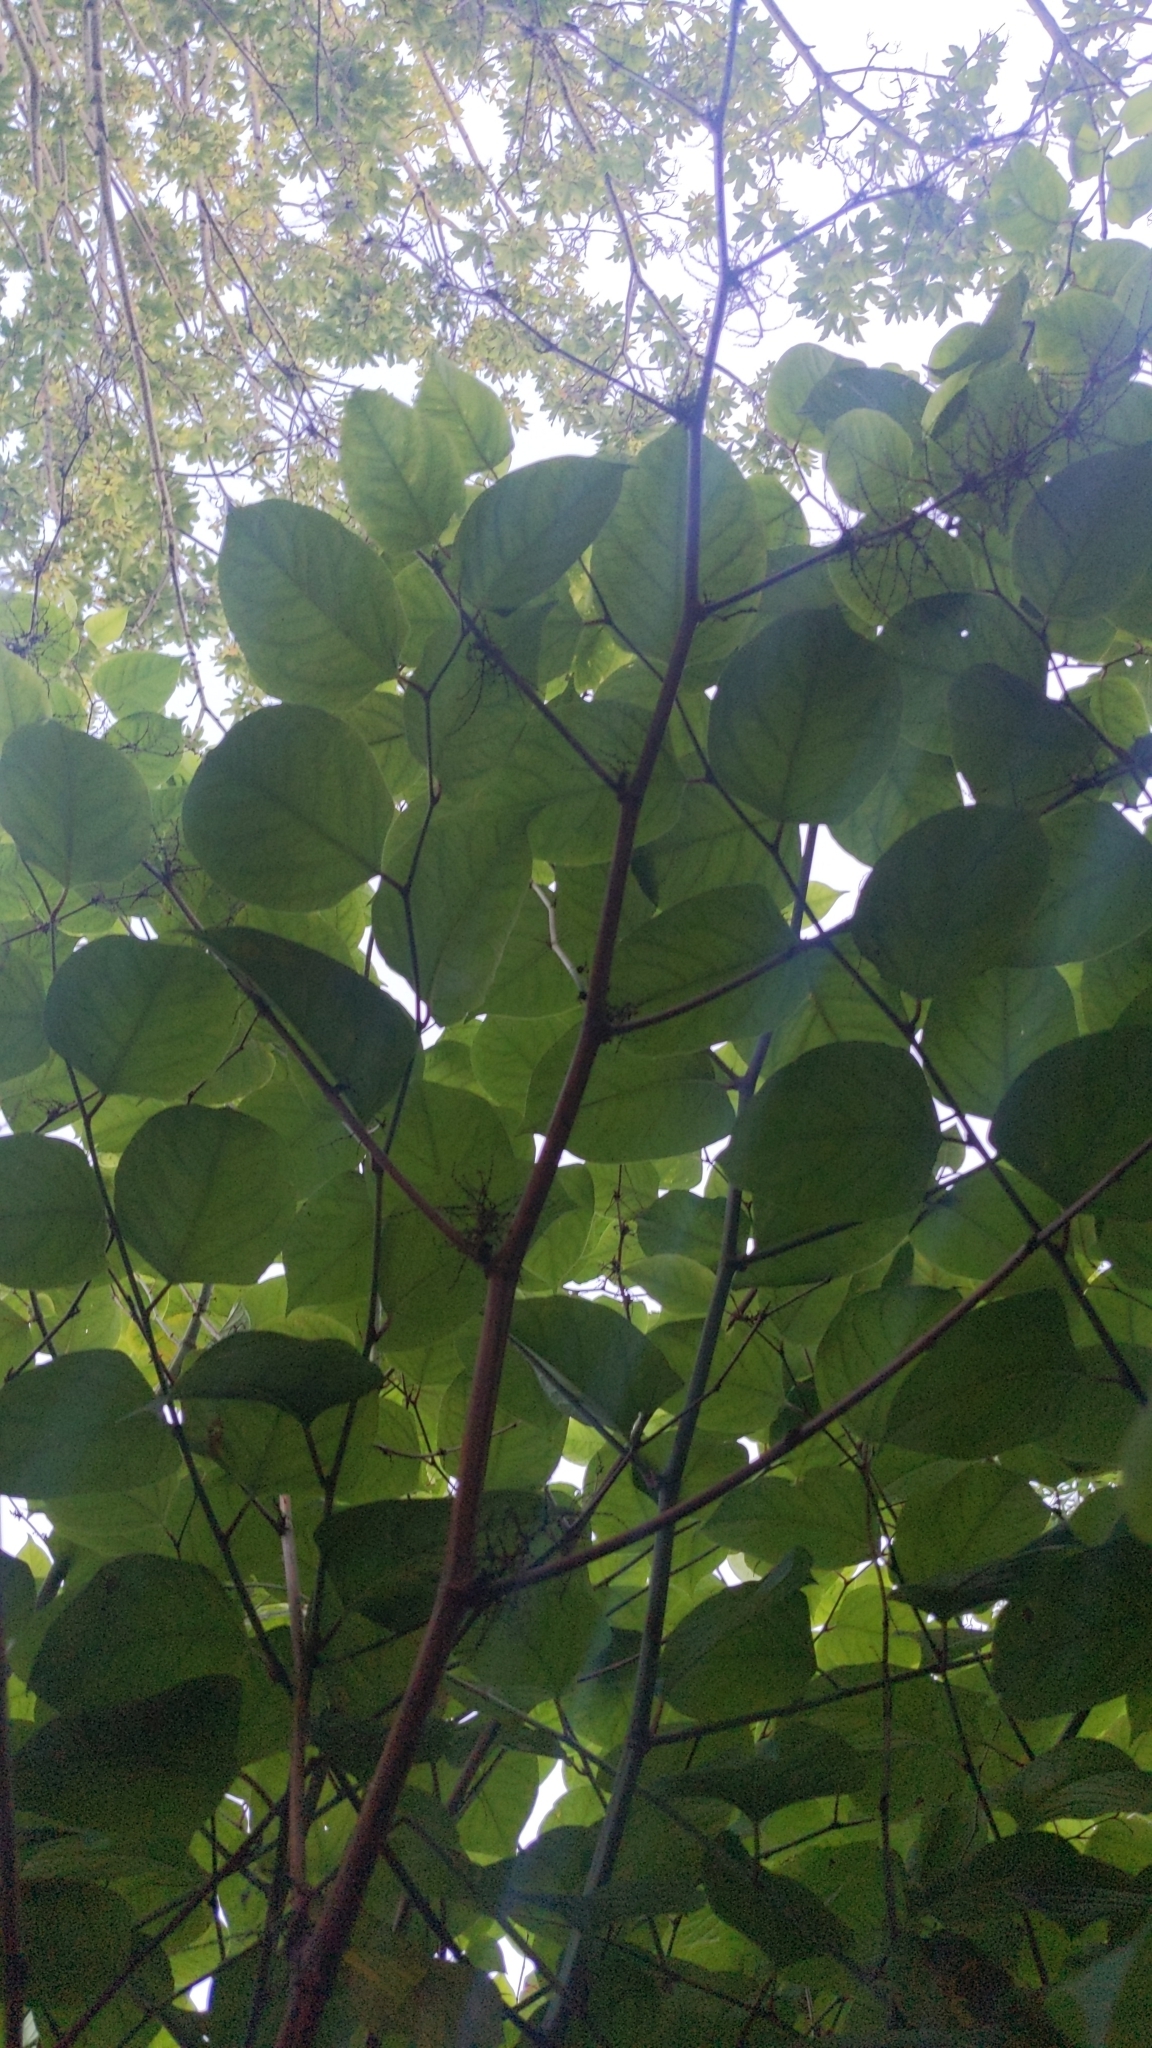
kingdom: Plantae
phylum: Tracheophyta
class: Magnoliopsida
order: Caryophyllales
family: Polygonaceae
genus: Reynoutria
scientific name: Reynoutria japonica
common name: Japanese knotweed
